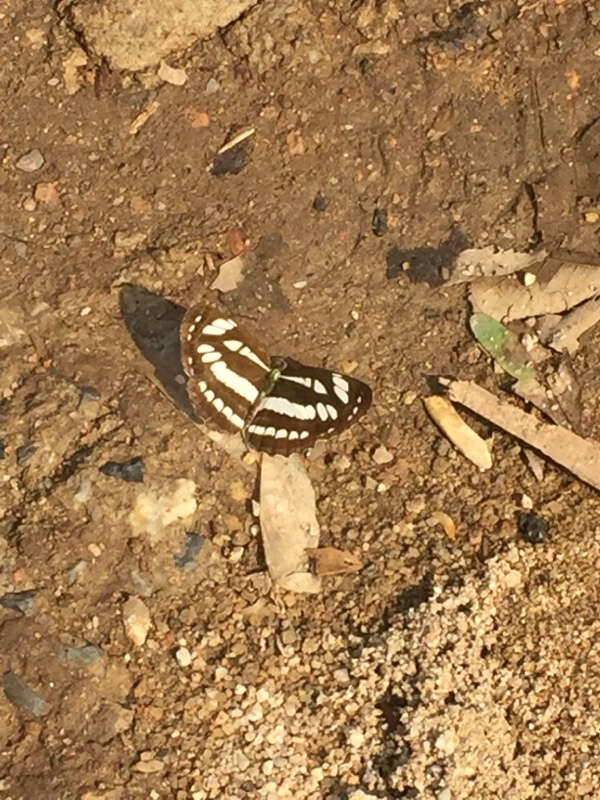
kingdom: Animalia
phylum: Arthropoda
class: Insecta
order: Lepidoptera
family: Nymphalidae
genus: Neptis
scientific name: Neptis hylas
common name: Common sailer
